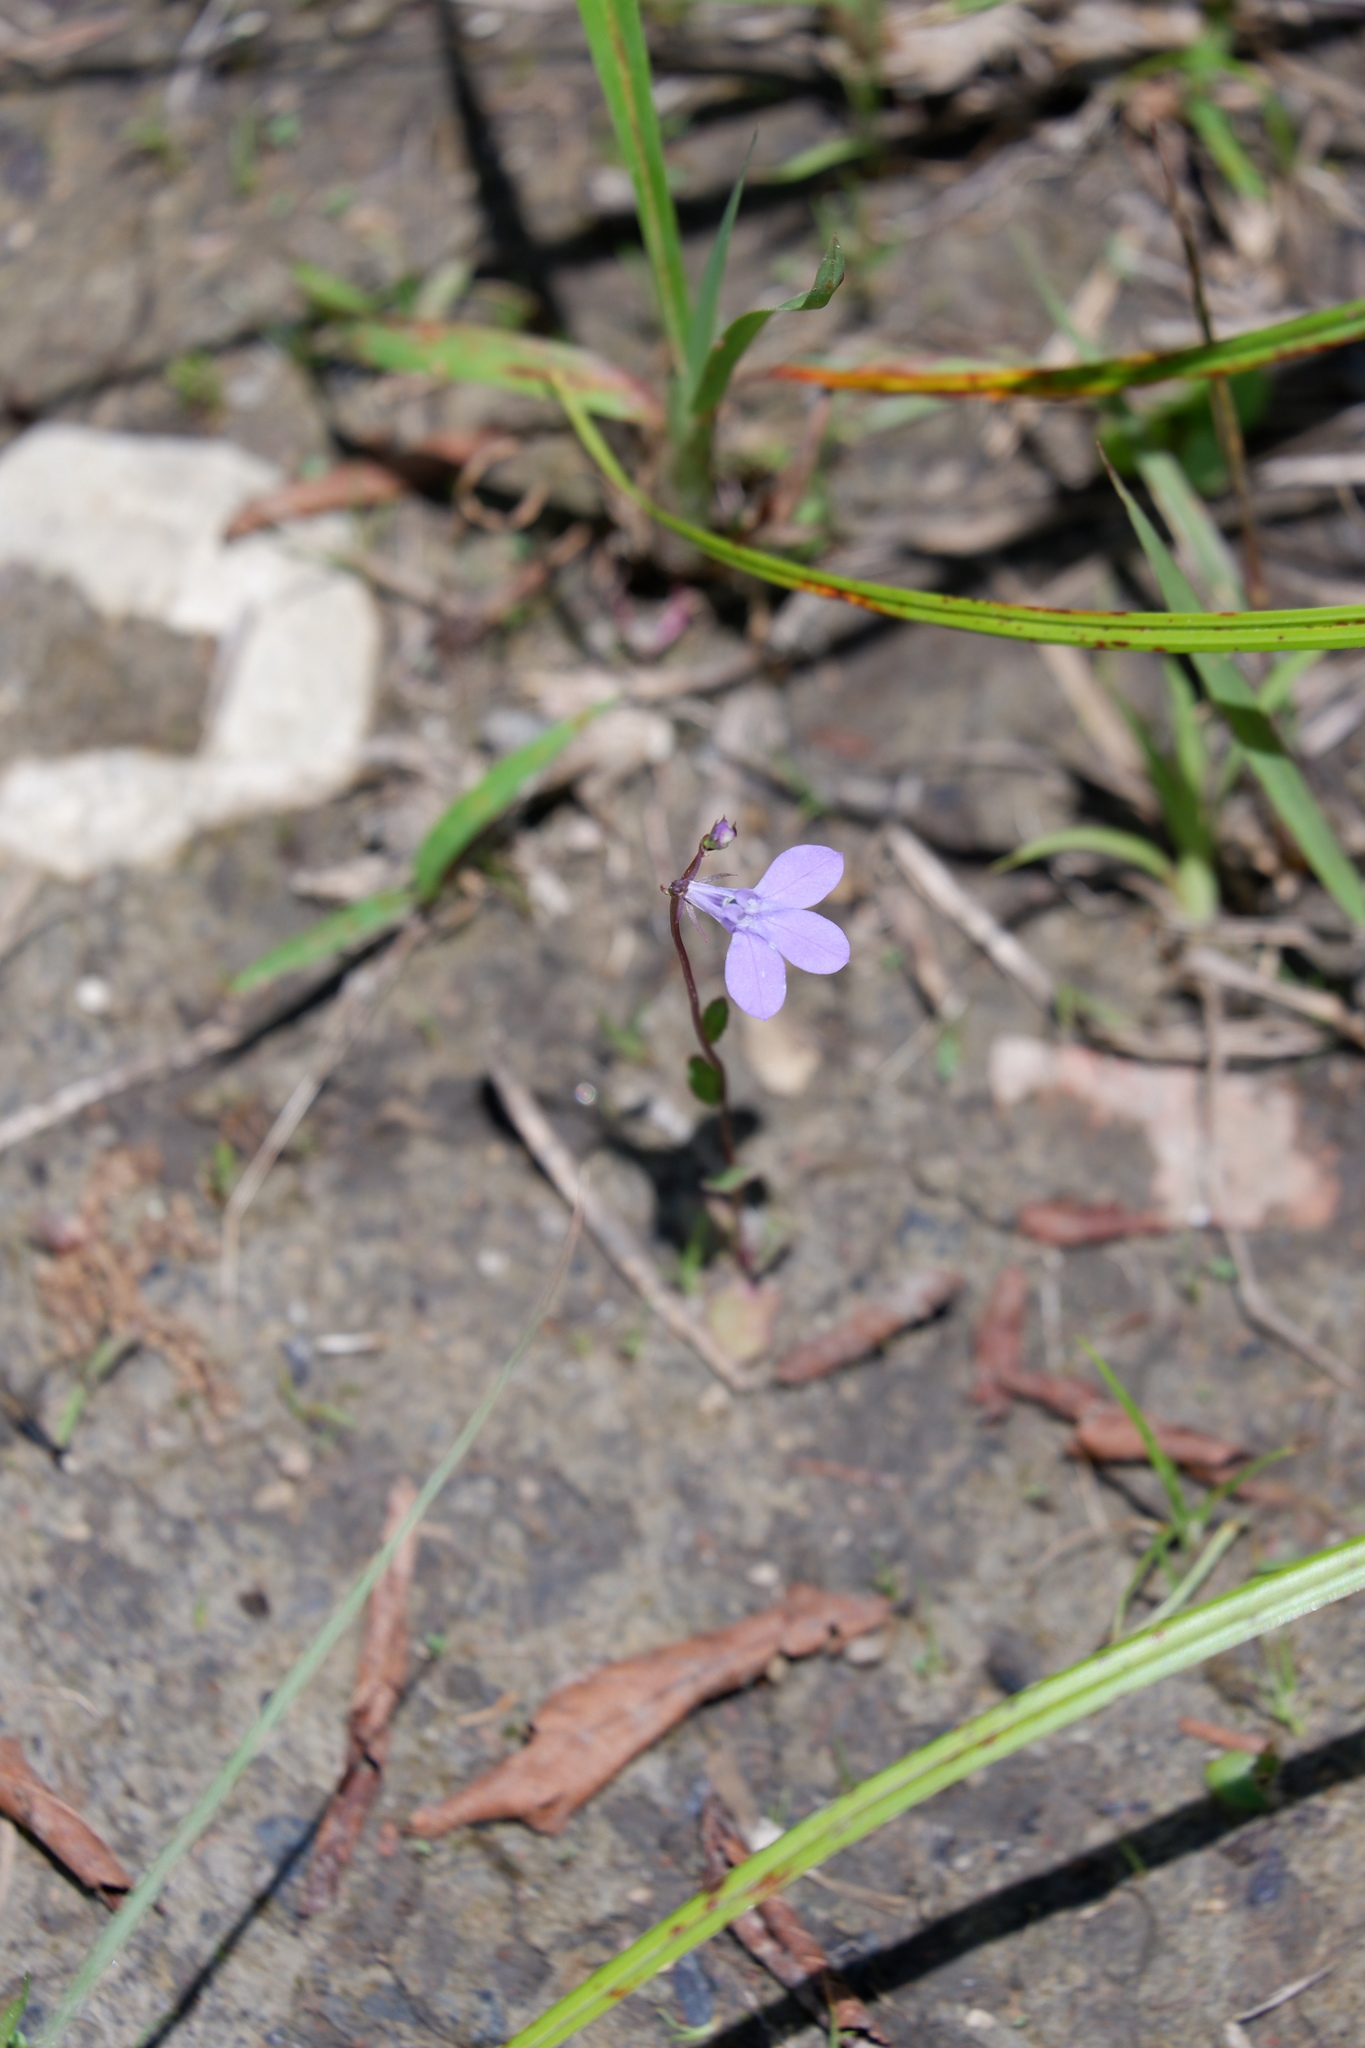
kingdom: Plantae
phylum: Tracheophyta
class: Magnoliopsida
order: Asterales
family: Campanulaceae
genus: Lobelia
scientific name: Lobelia gattingeri
